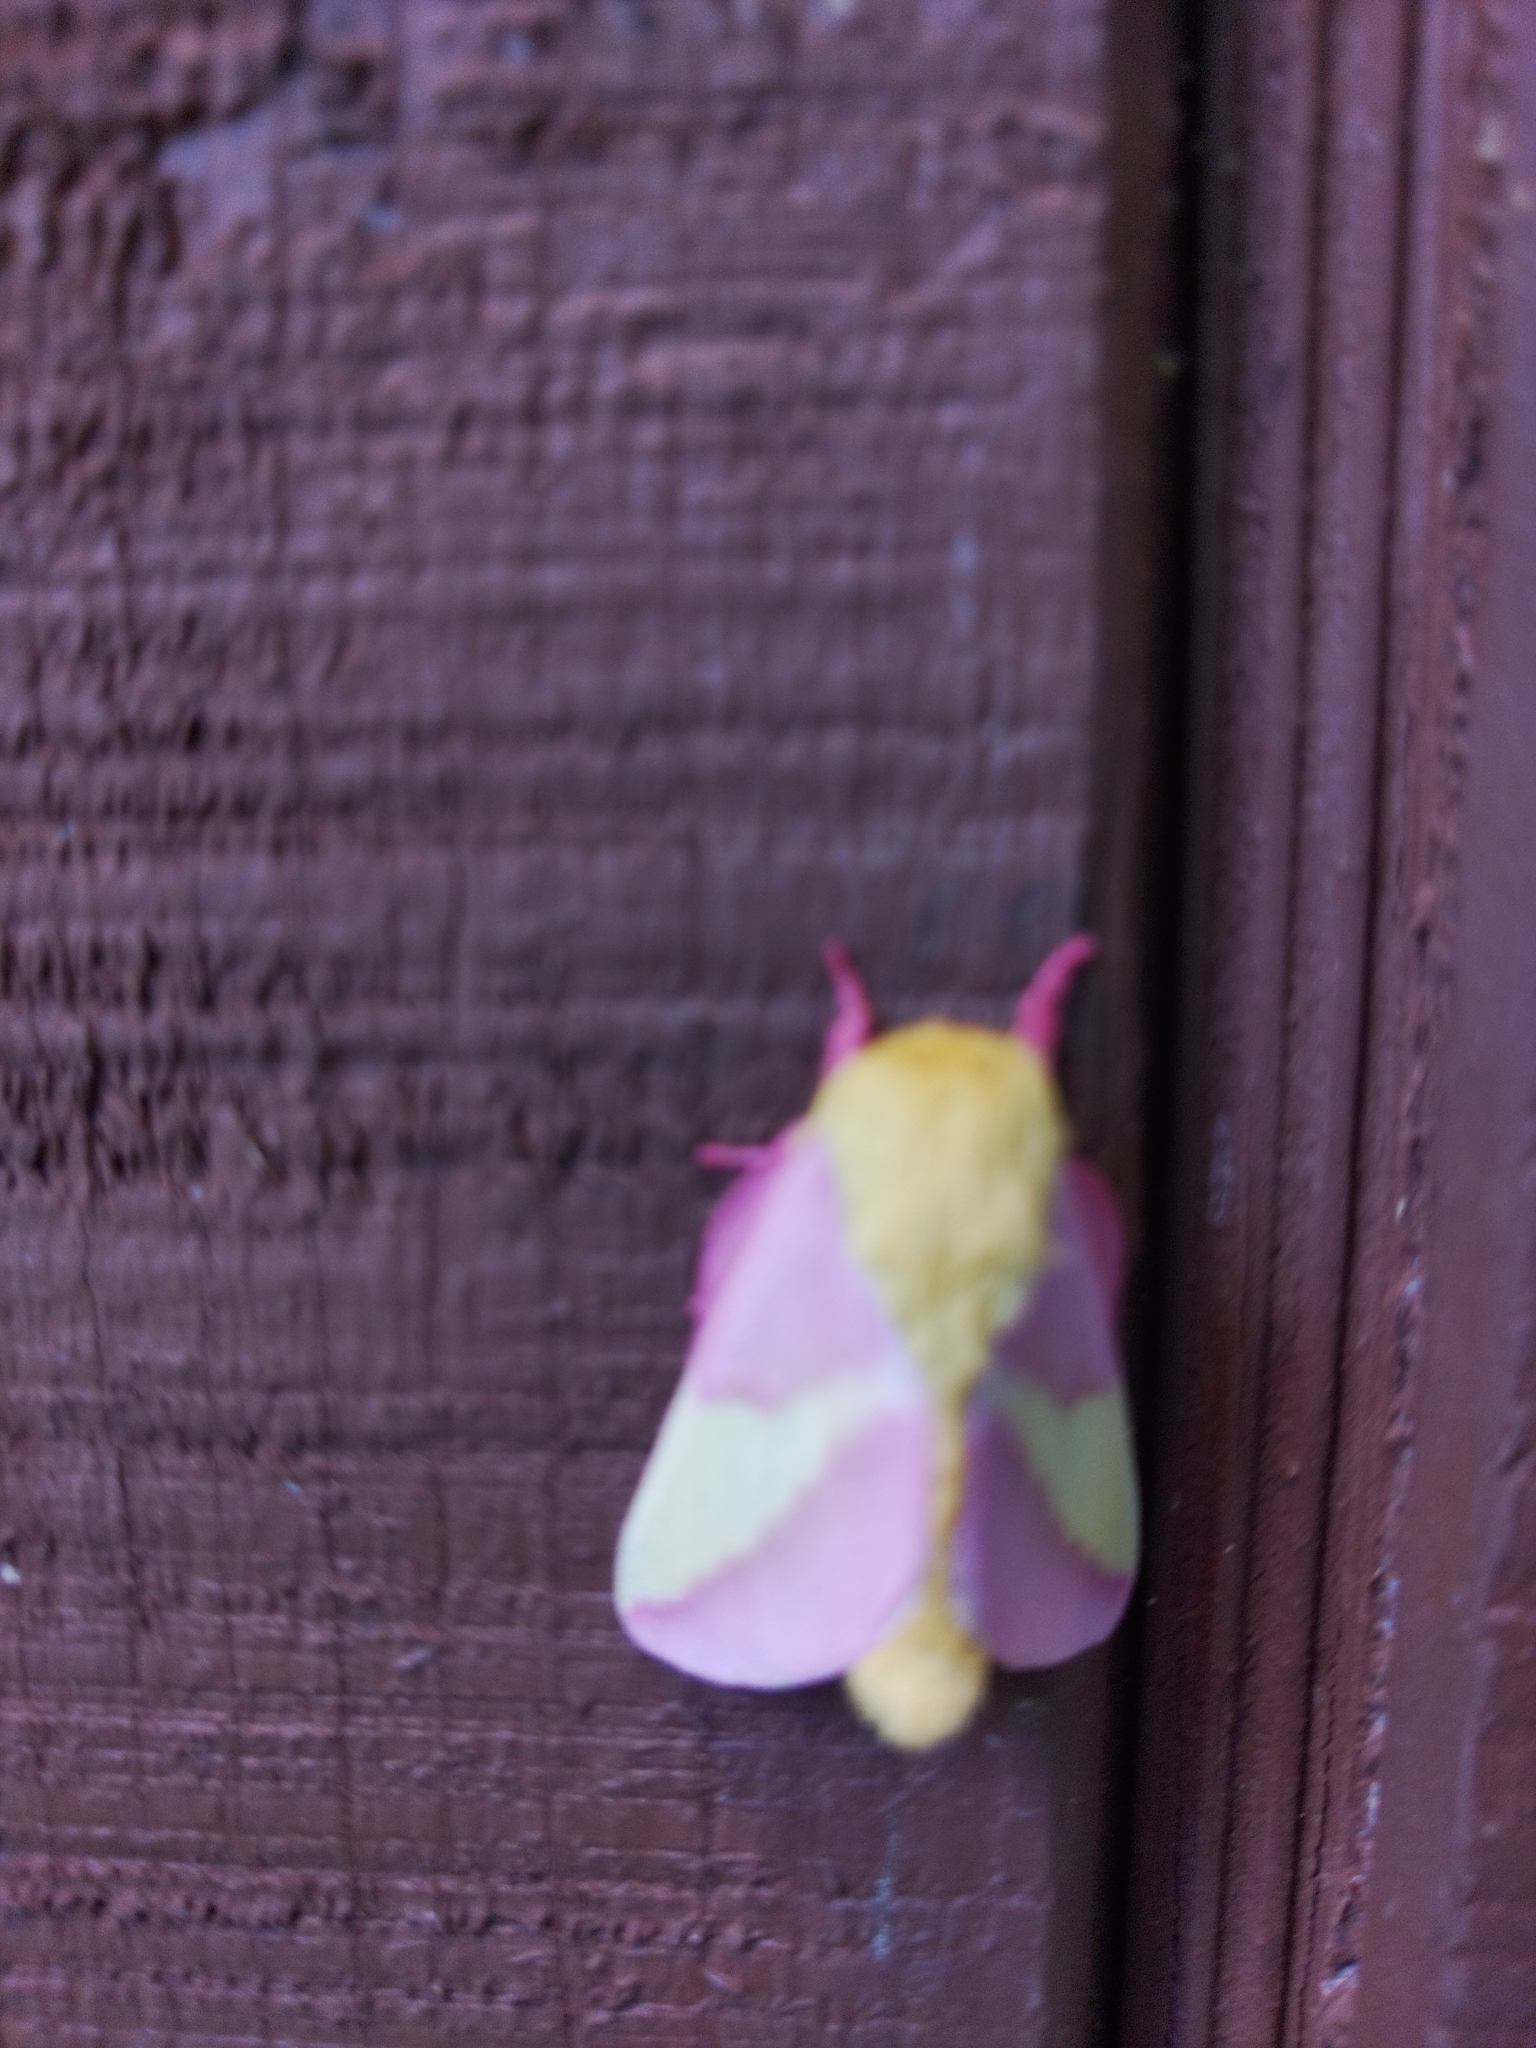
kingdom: Animalia
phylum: Arthropoda
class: Insecta
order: Lepidoptera
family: Saturniidae
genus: Dryocampa
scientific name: Dryocampa rubicunda
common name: Rosy maple moth
